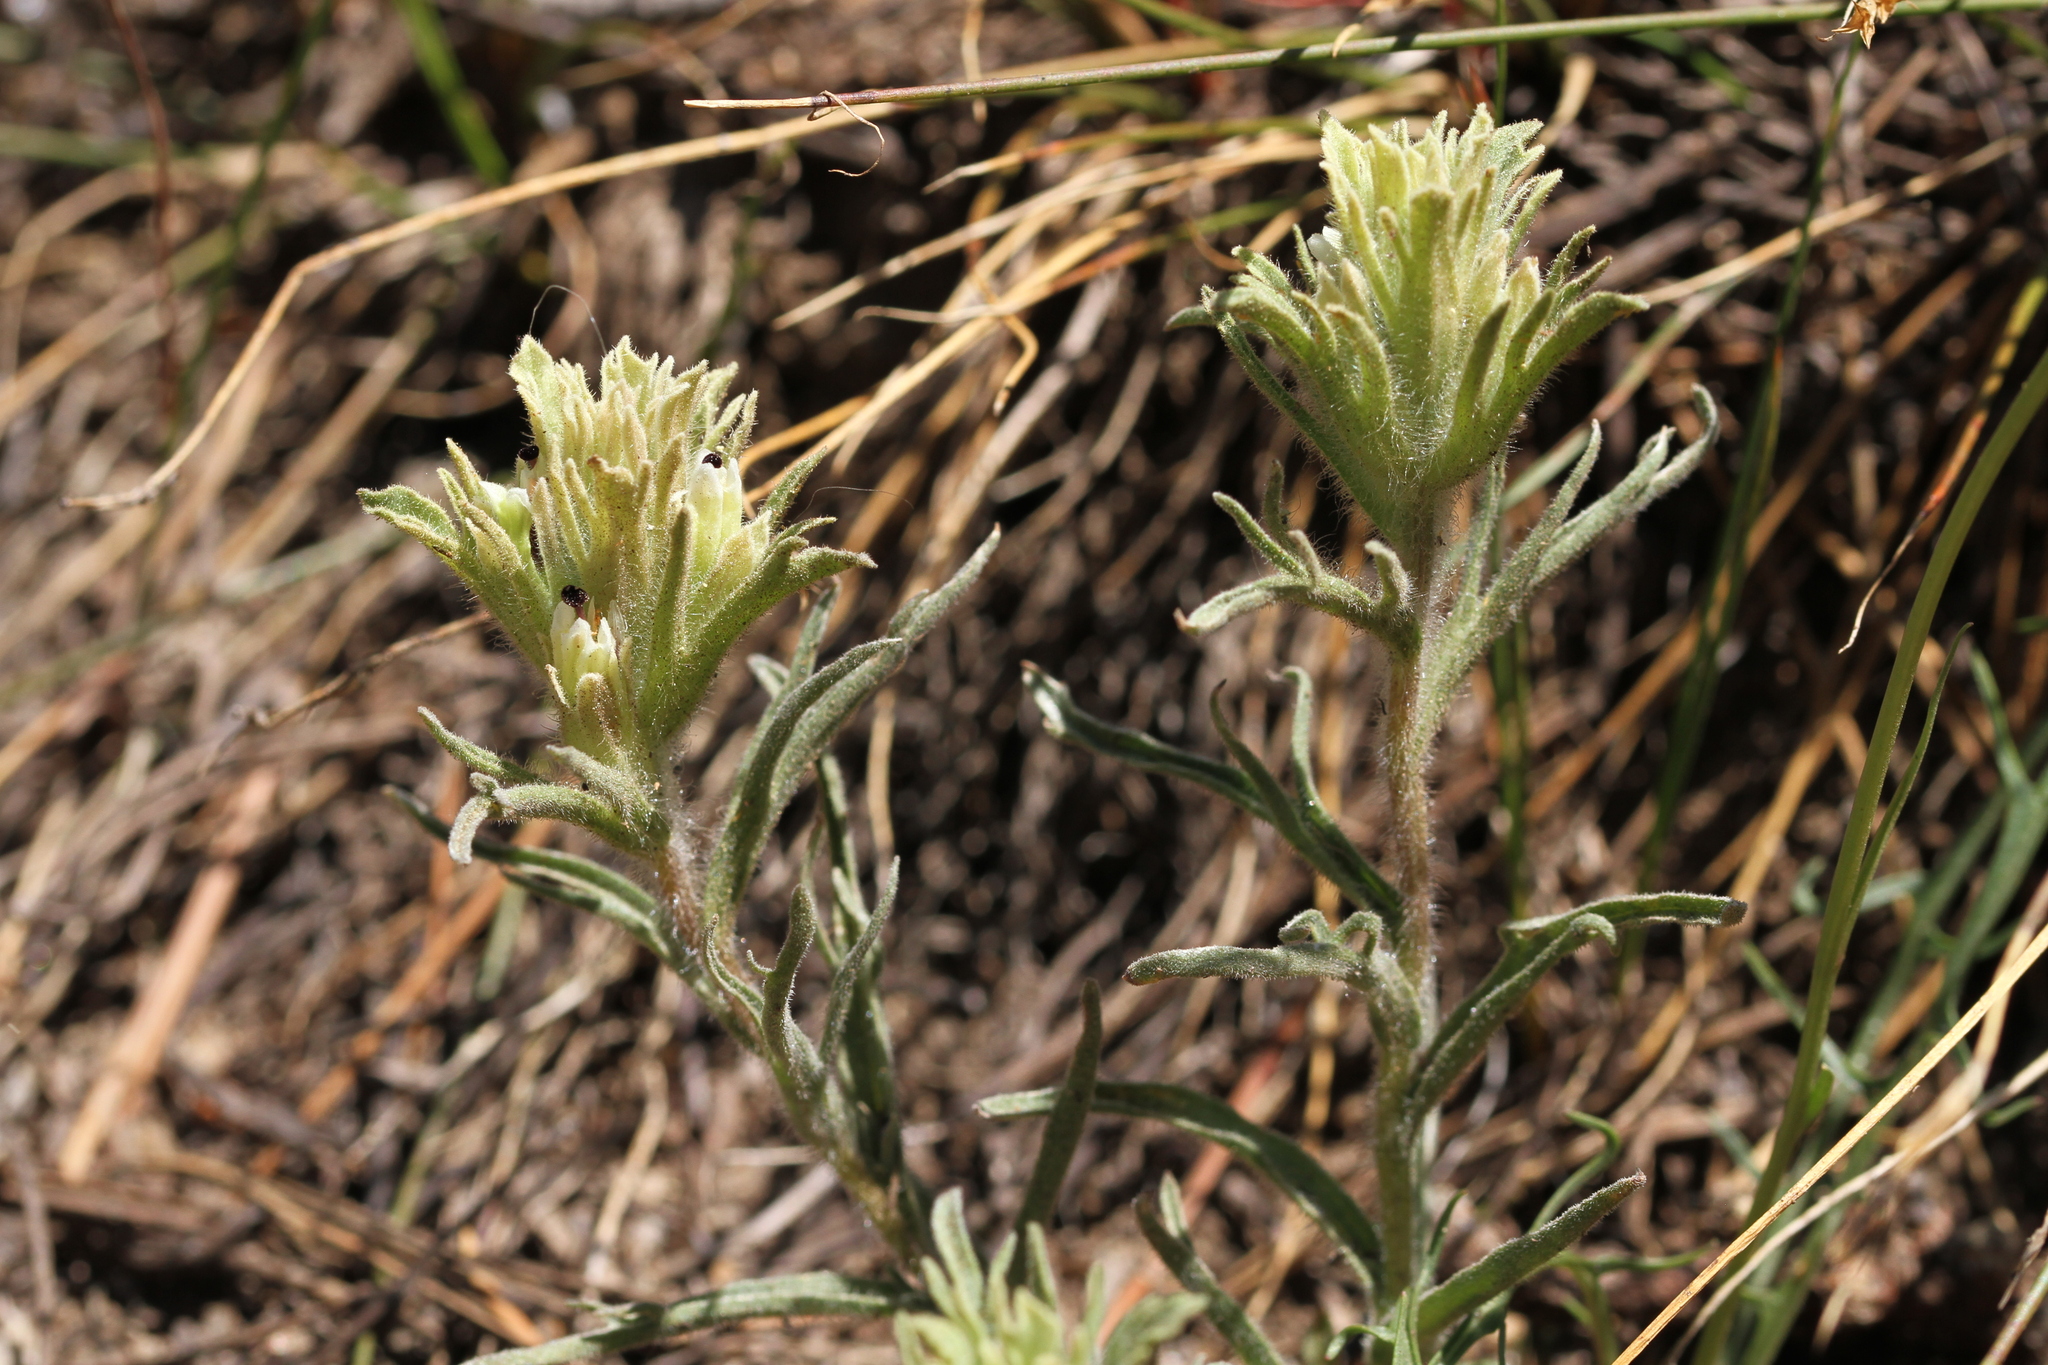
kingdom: Plantae
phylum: Tracheophyta
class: Magnoliopsida
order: Lamiales
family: Orobanchaceae
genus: Castilleja
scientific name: Castilleja nana
